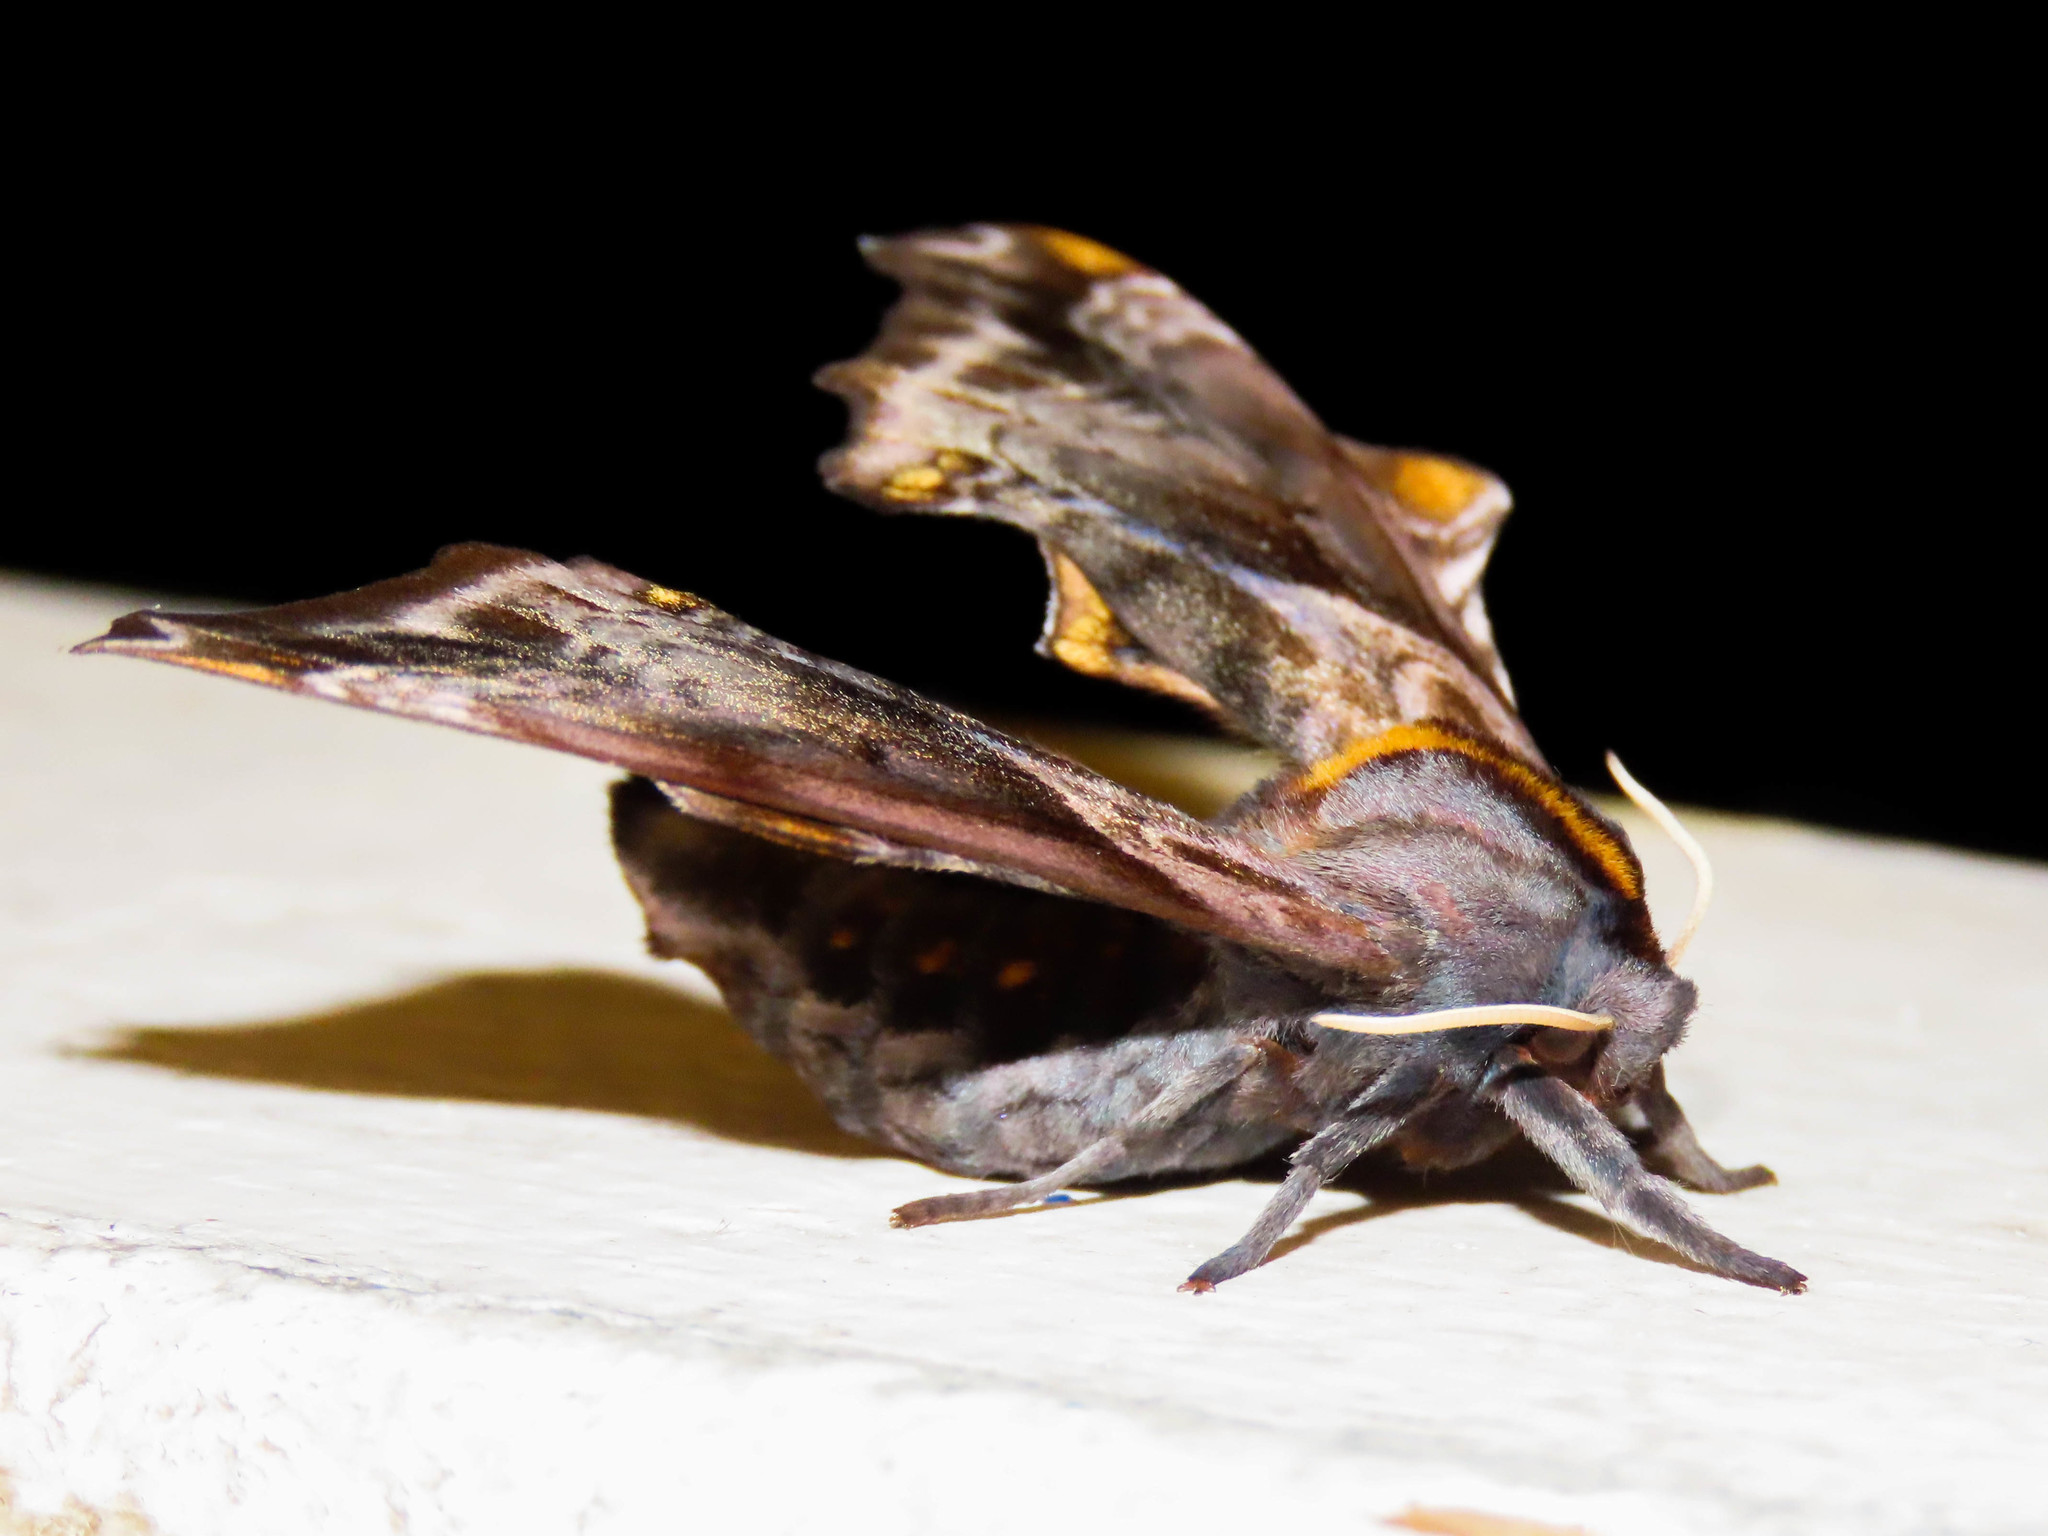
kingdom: Animalia
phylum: Arthropoda
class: Insecta
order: Lepidoptera
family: Sphingidae
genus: Paonias
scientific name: Paonias myops
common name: Small-eyed sphinx
